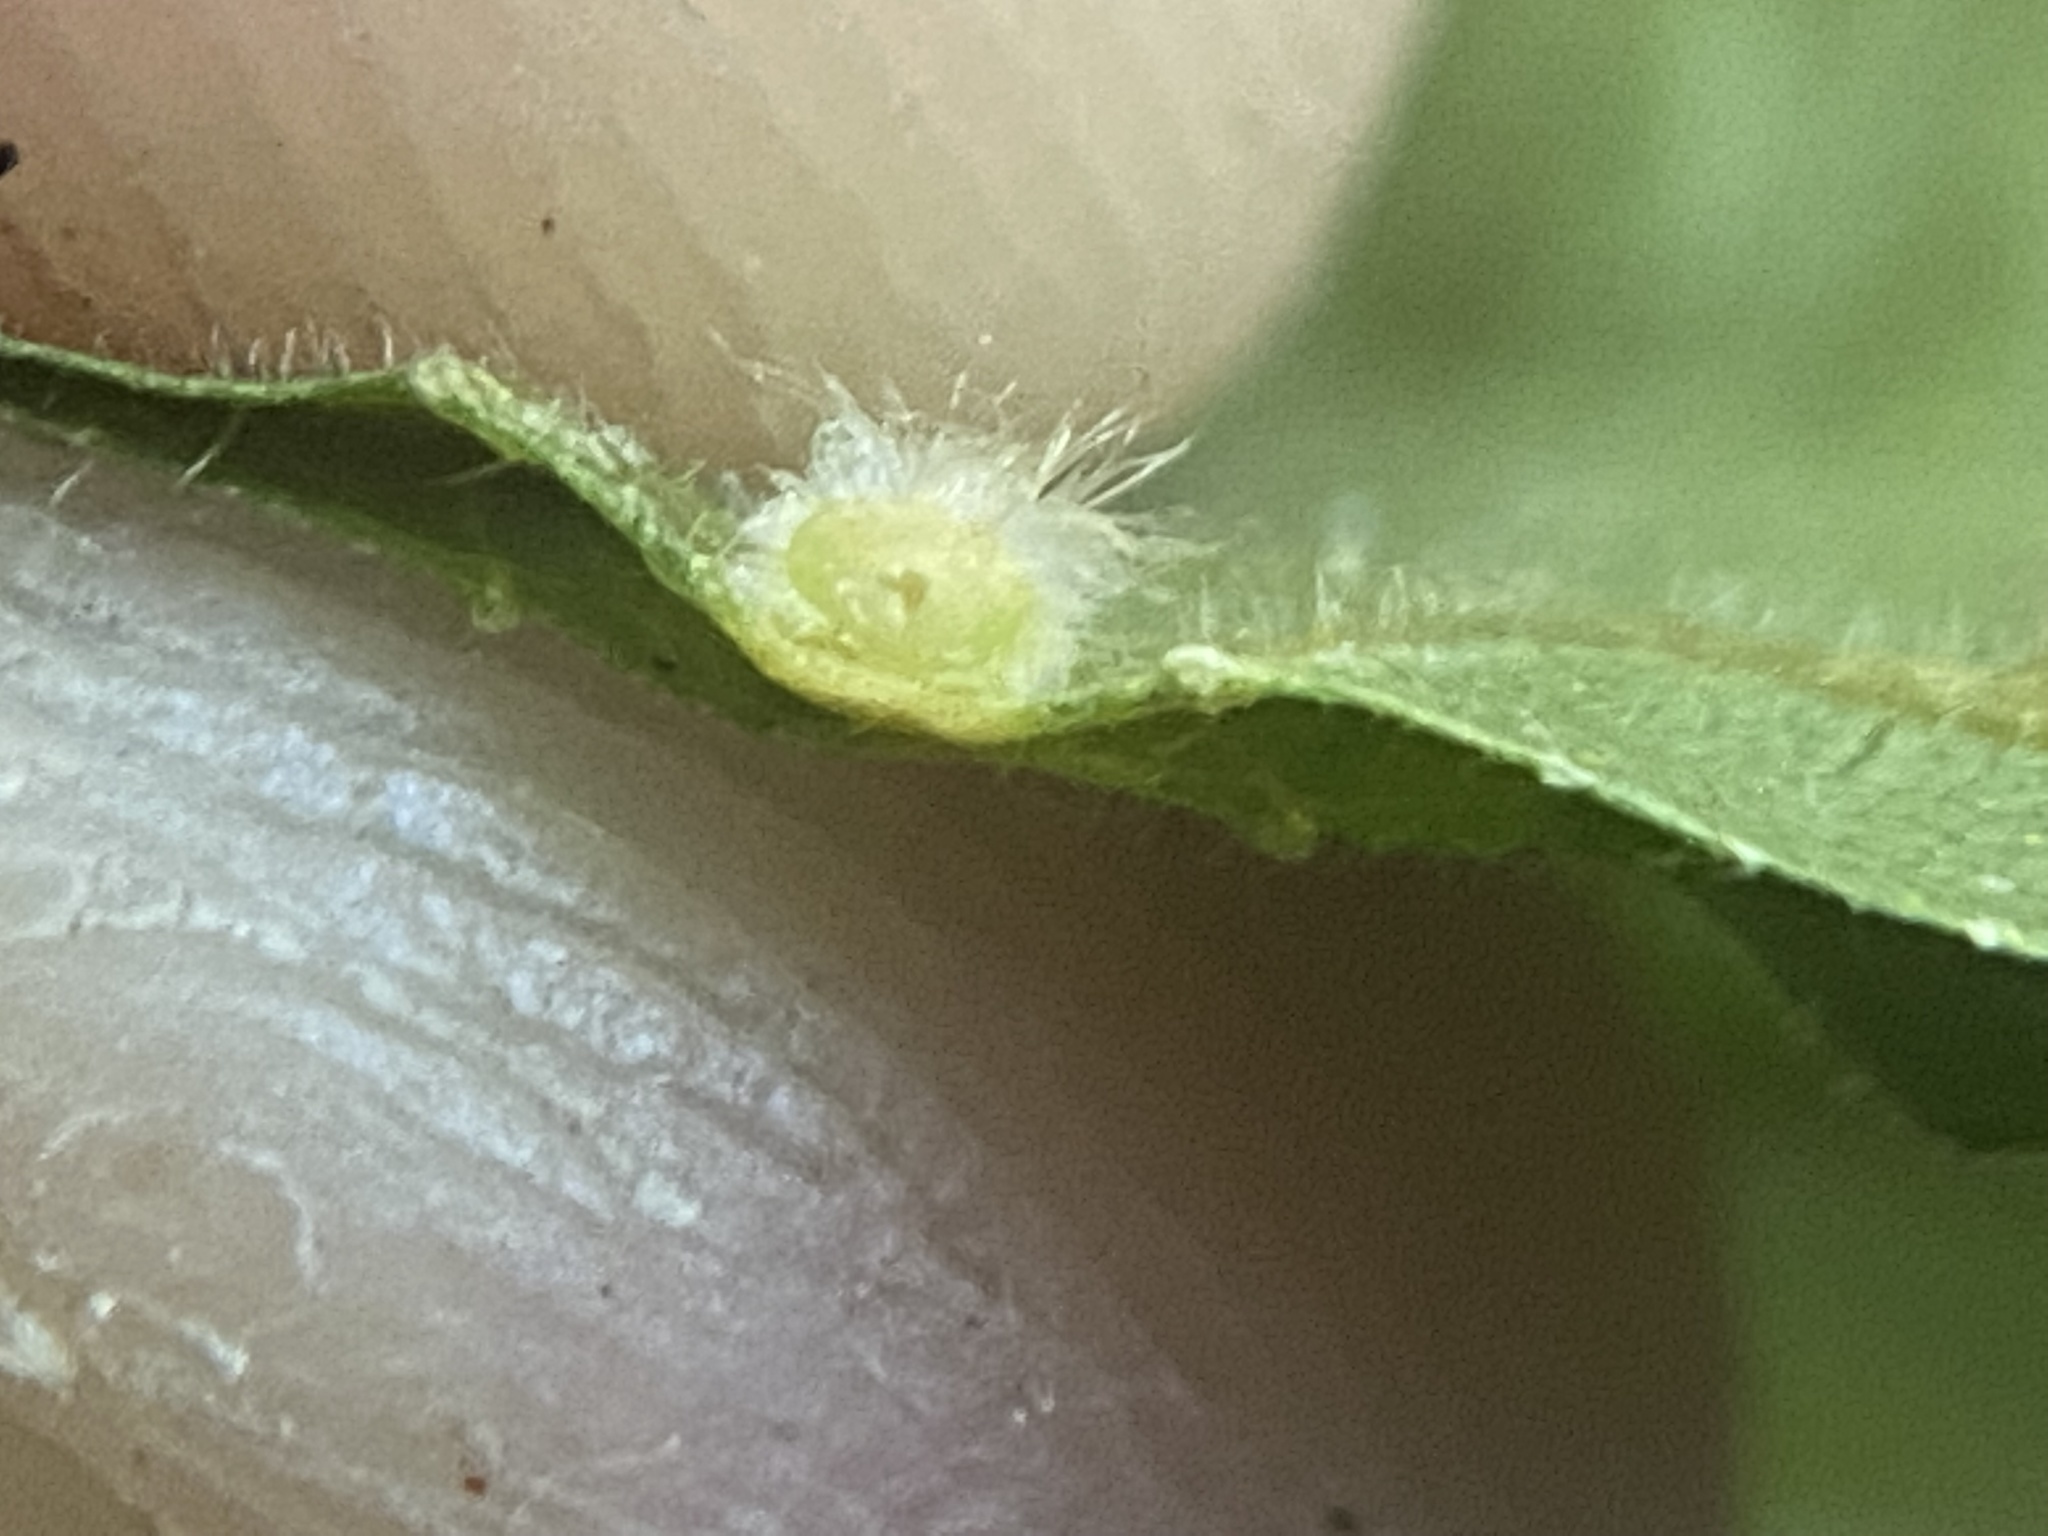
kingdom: Animalia
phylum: Arthropoda
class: Insecta
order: Diptera
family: Cecidomyiidae
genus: Caryomyia
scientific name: Caryomyia ansericollum
